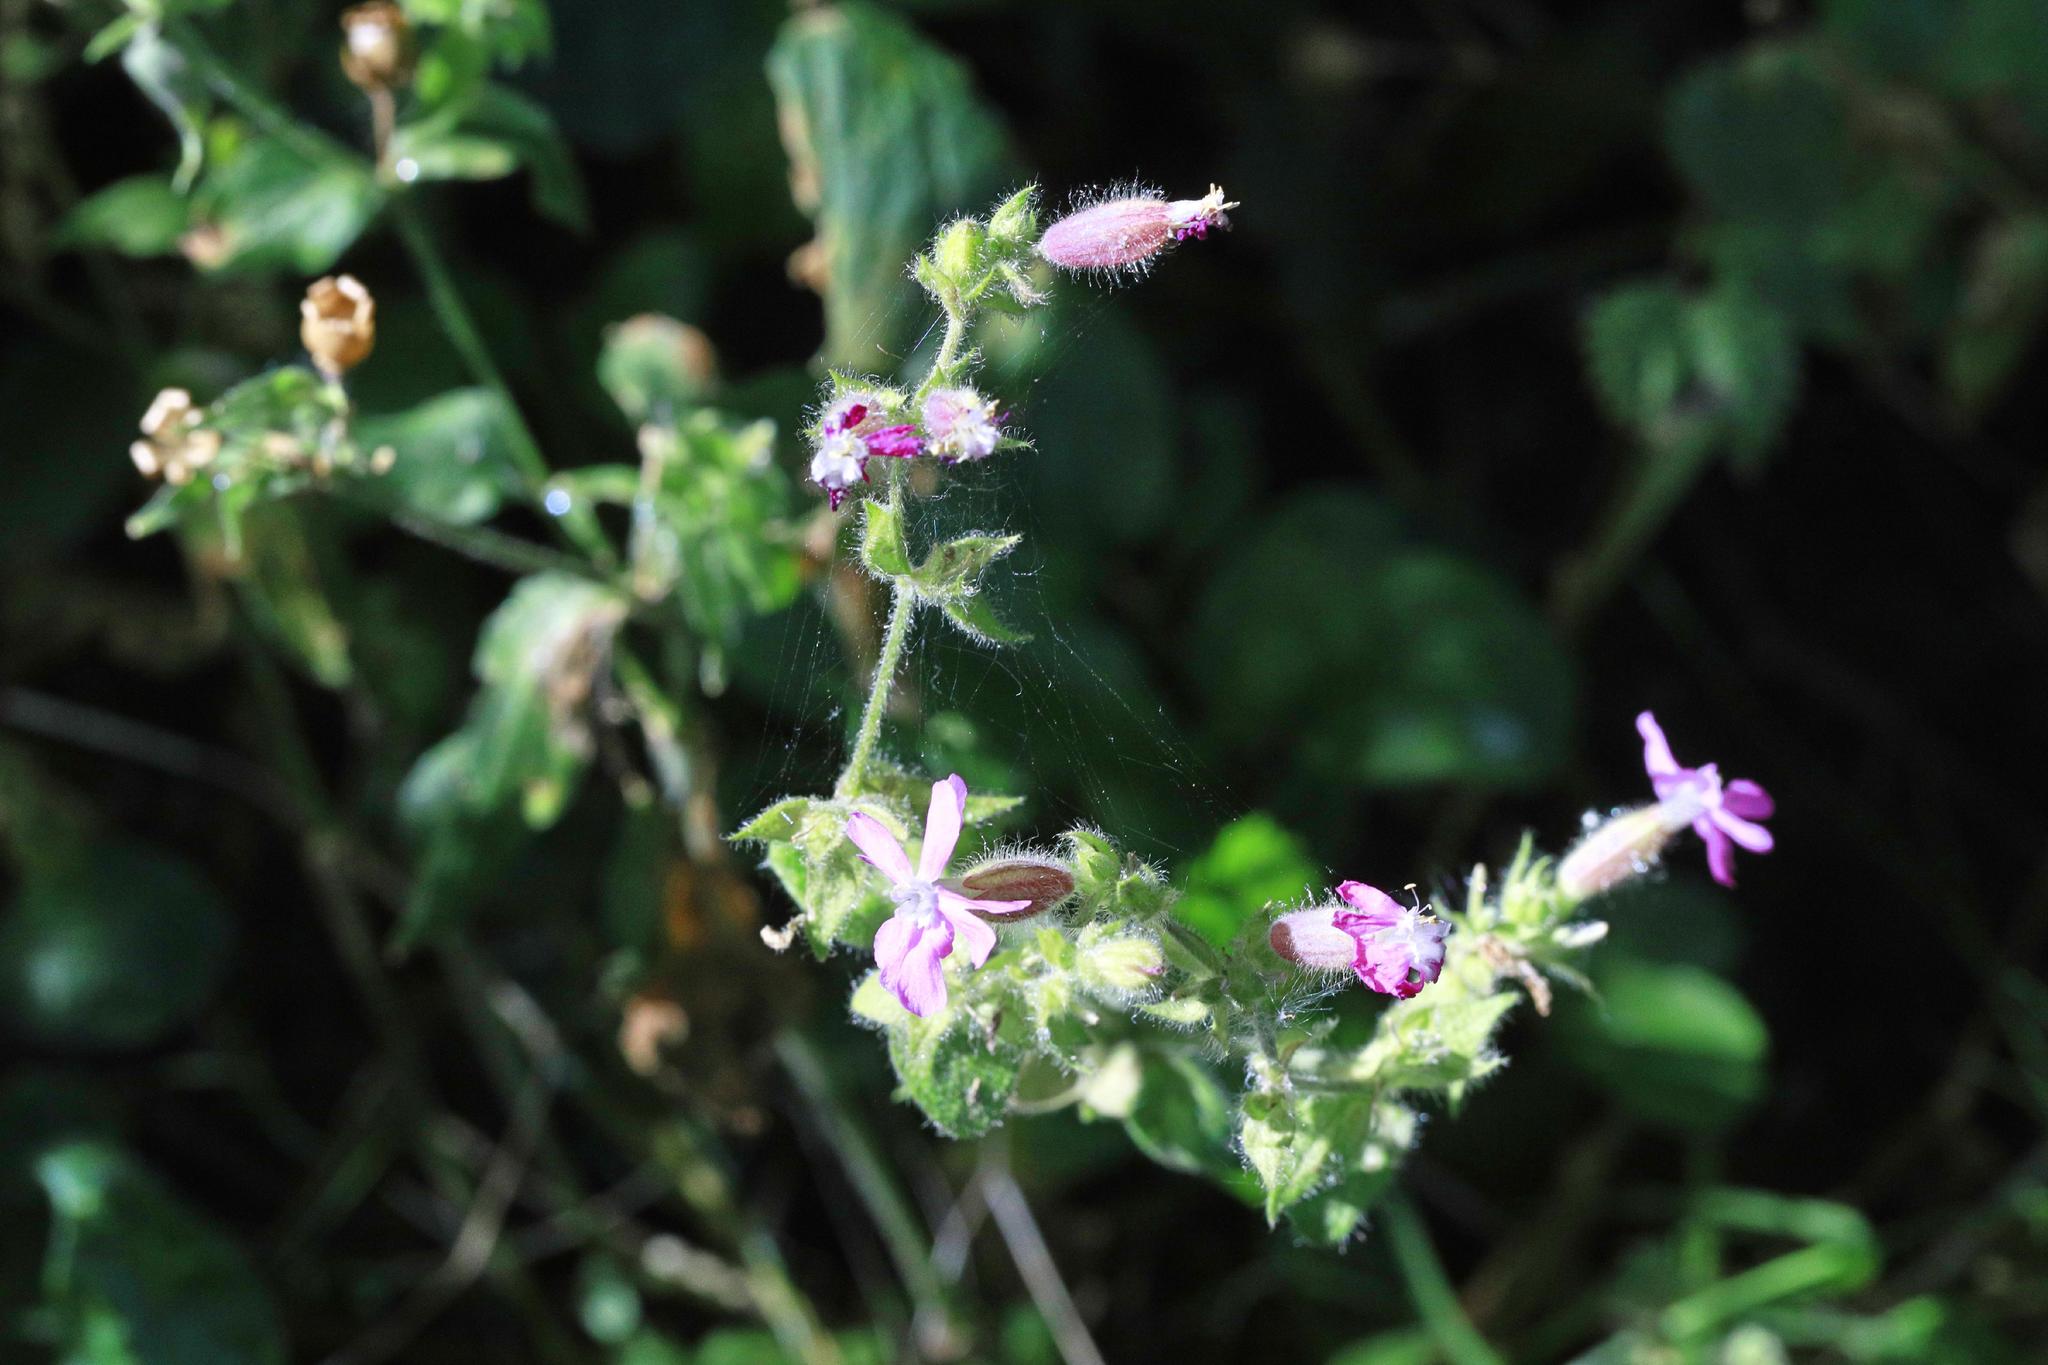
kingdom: Plantae
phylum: Tracheophyta
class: Magnoliopsida
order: Caryophyllales
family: Caryophyllaceae
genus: Silene
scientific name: Silene dioica
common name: Red campion
